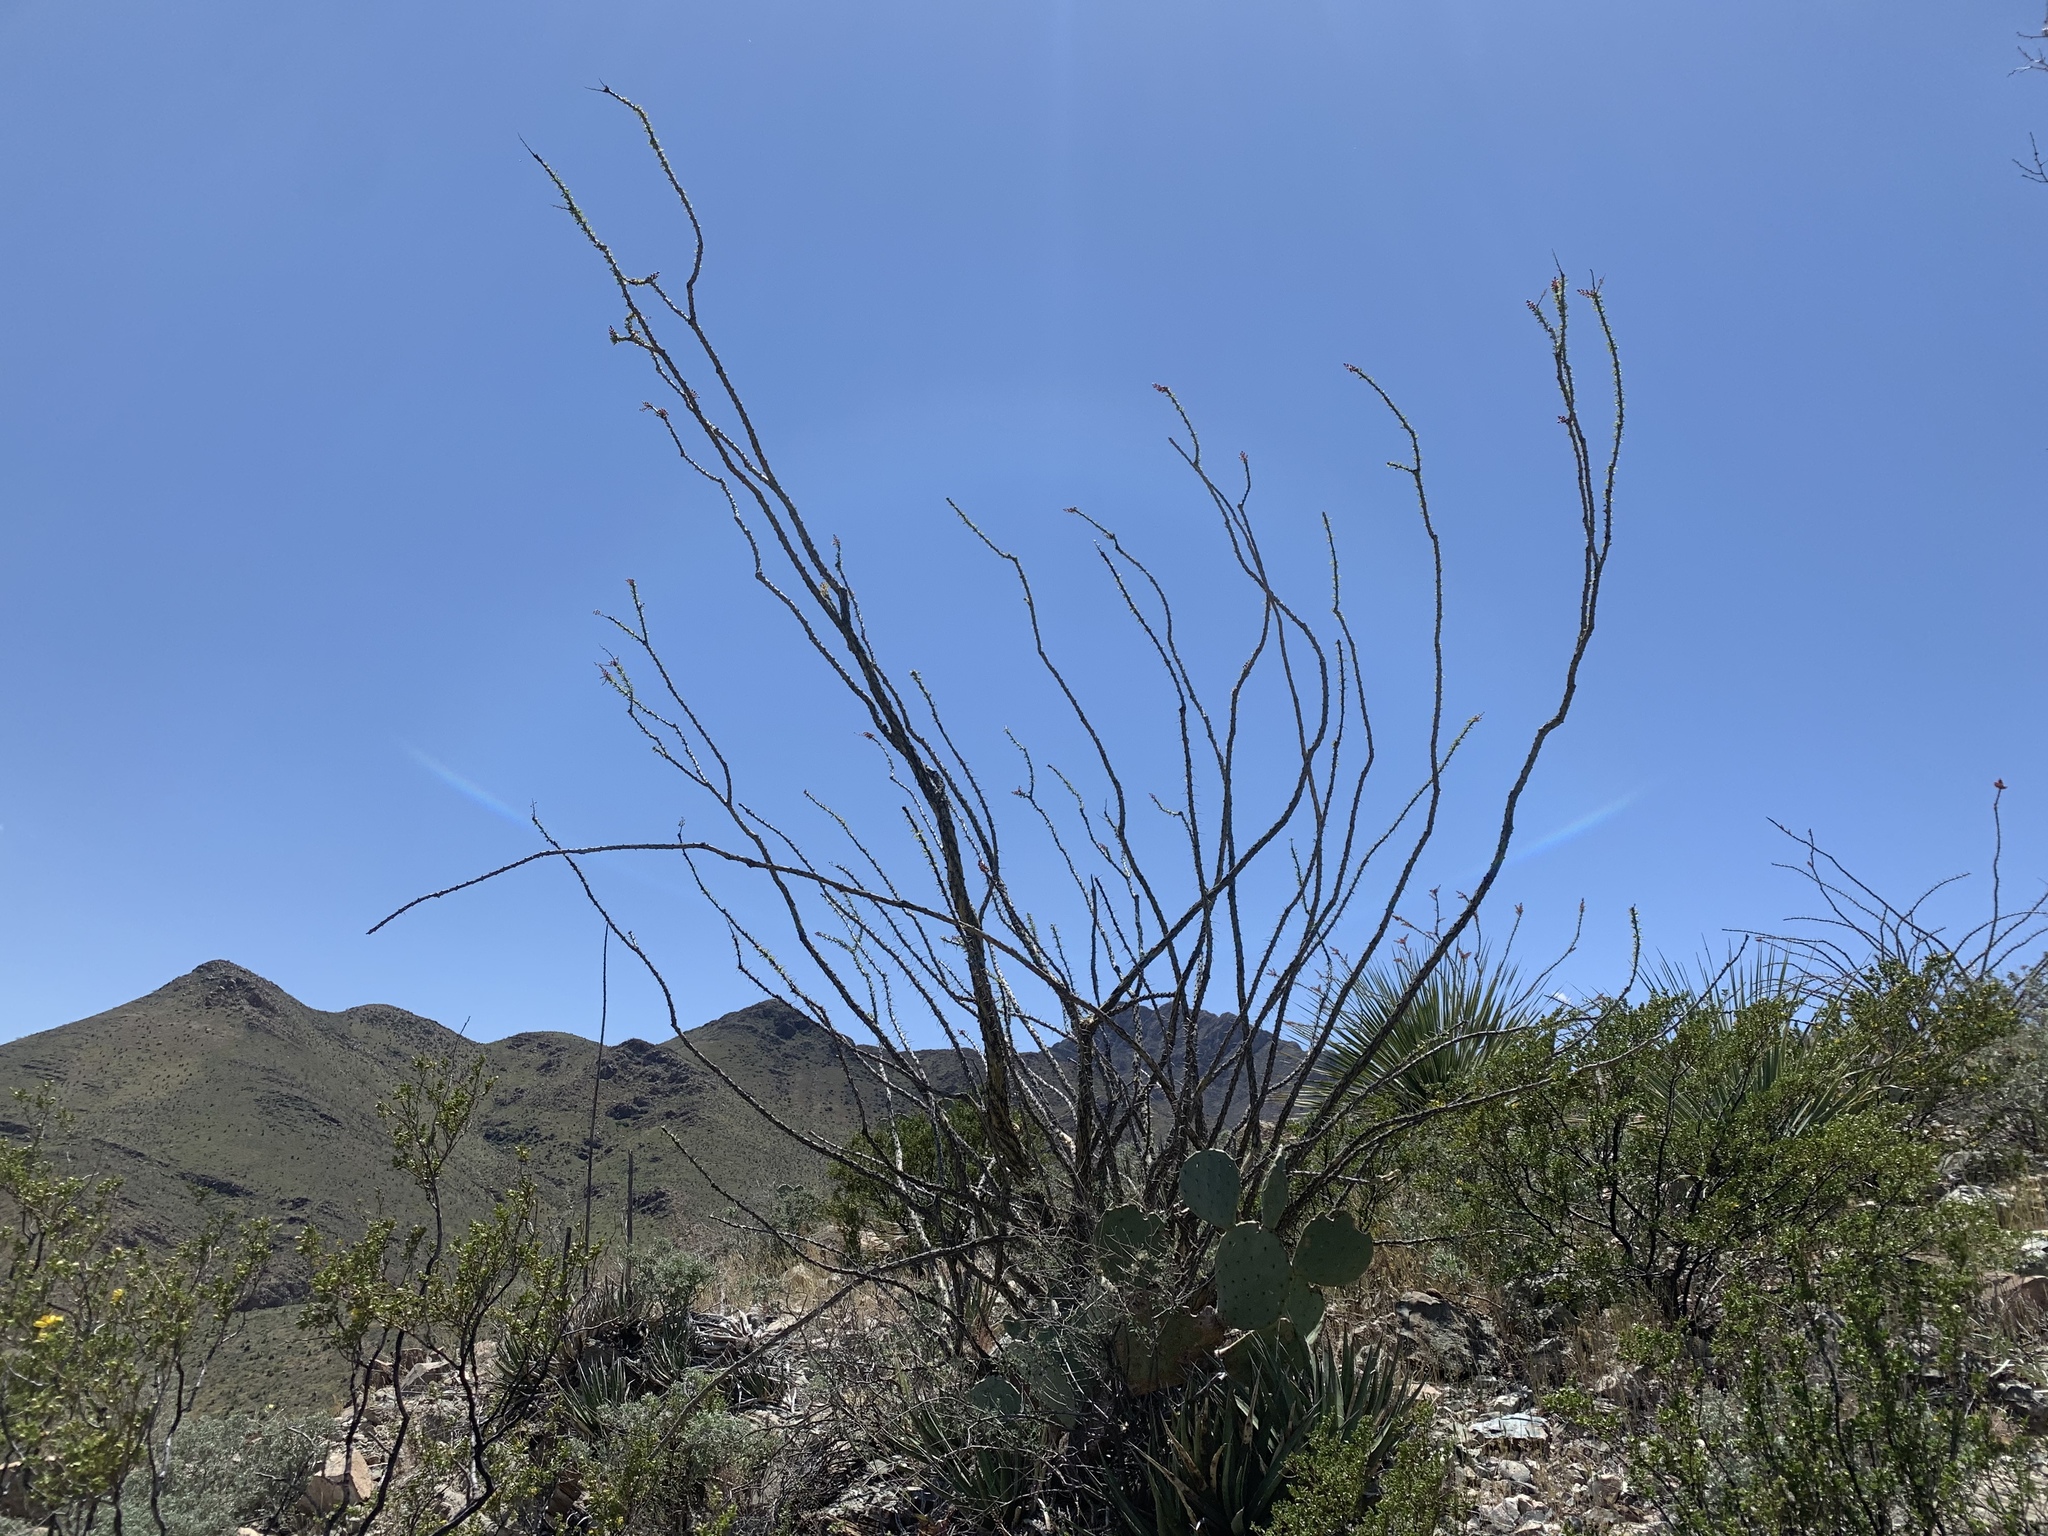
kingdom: Plantae
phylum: Tracheophyta
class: Magnoliopsida
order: Ericales
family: Fouquieriaceae
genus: Fouquieria
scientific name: Fouquieria splendens
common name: Vine-cactus
